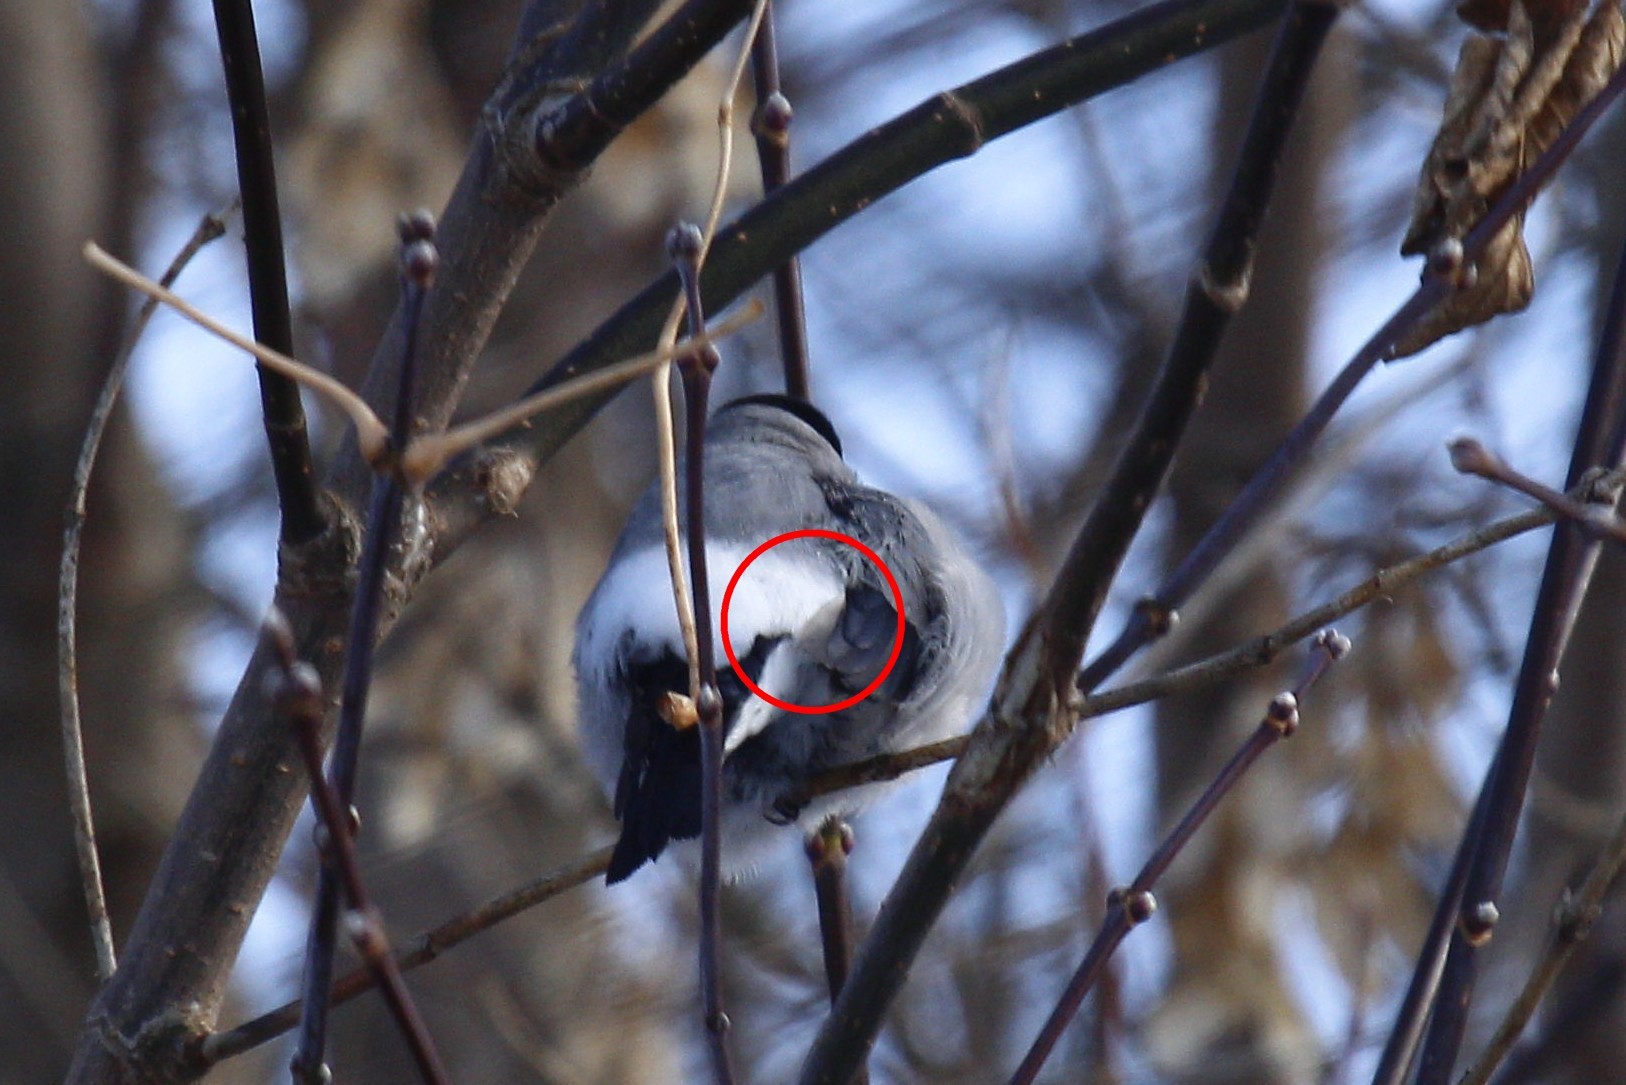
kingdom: Animalia
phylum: Chordata
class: Aves
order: Passeriformes
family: Fringillidae
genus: Pyrrhula
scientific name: Pyrrhula pyrrhula
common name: Eurasian bullfinch
